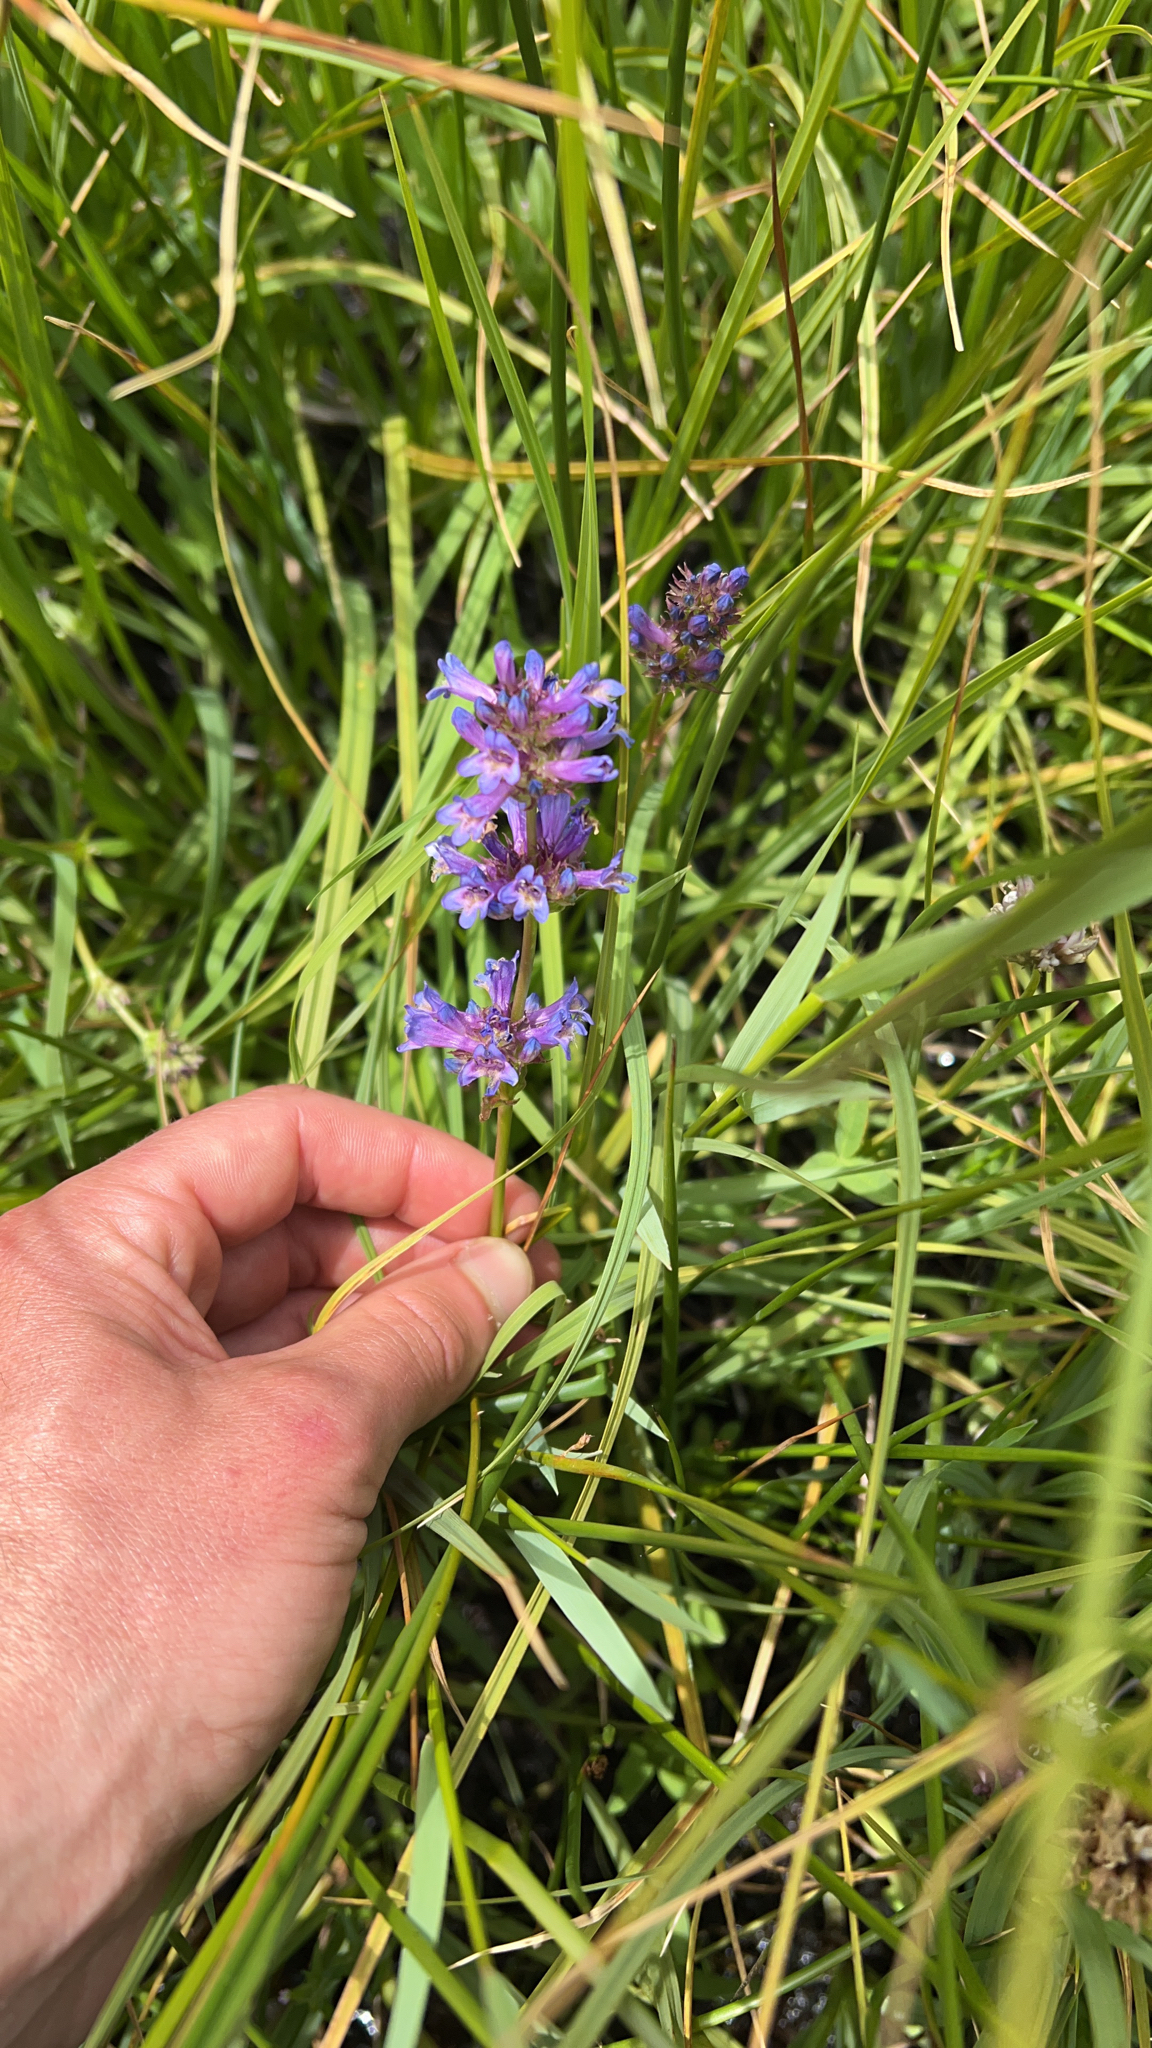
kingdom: Plantae
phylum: Tracheophyta
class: Magnoliopsida
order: Lamiales
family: Plantaginaceae
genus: Penstemon
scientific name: Penstemon rydbergii
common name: Rydberg's beardtongue
